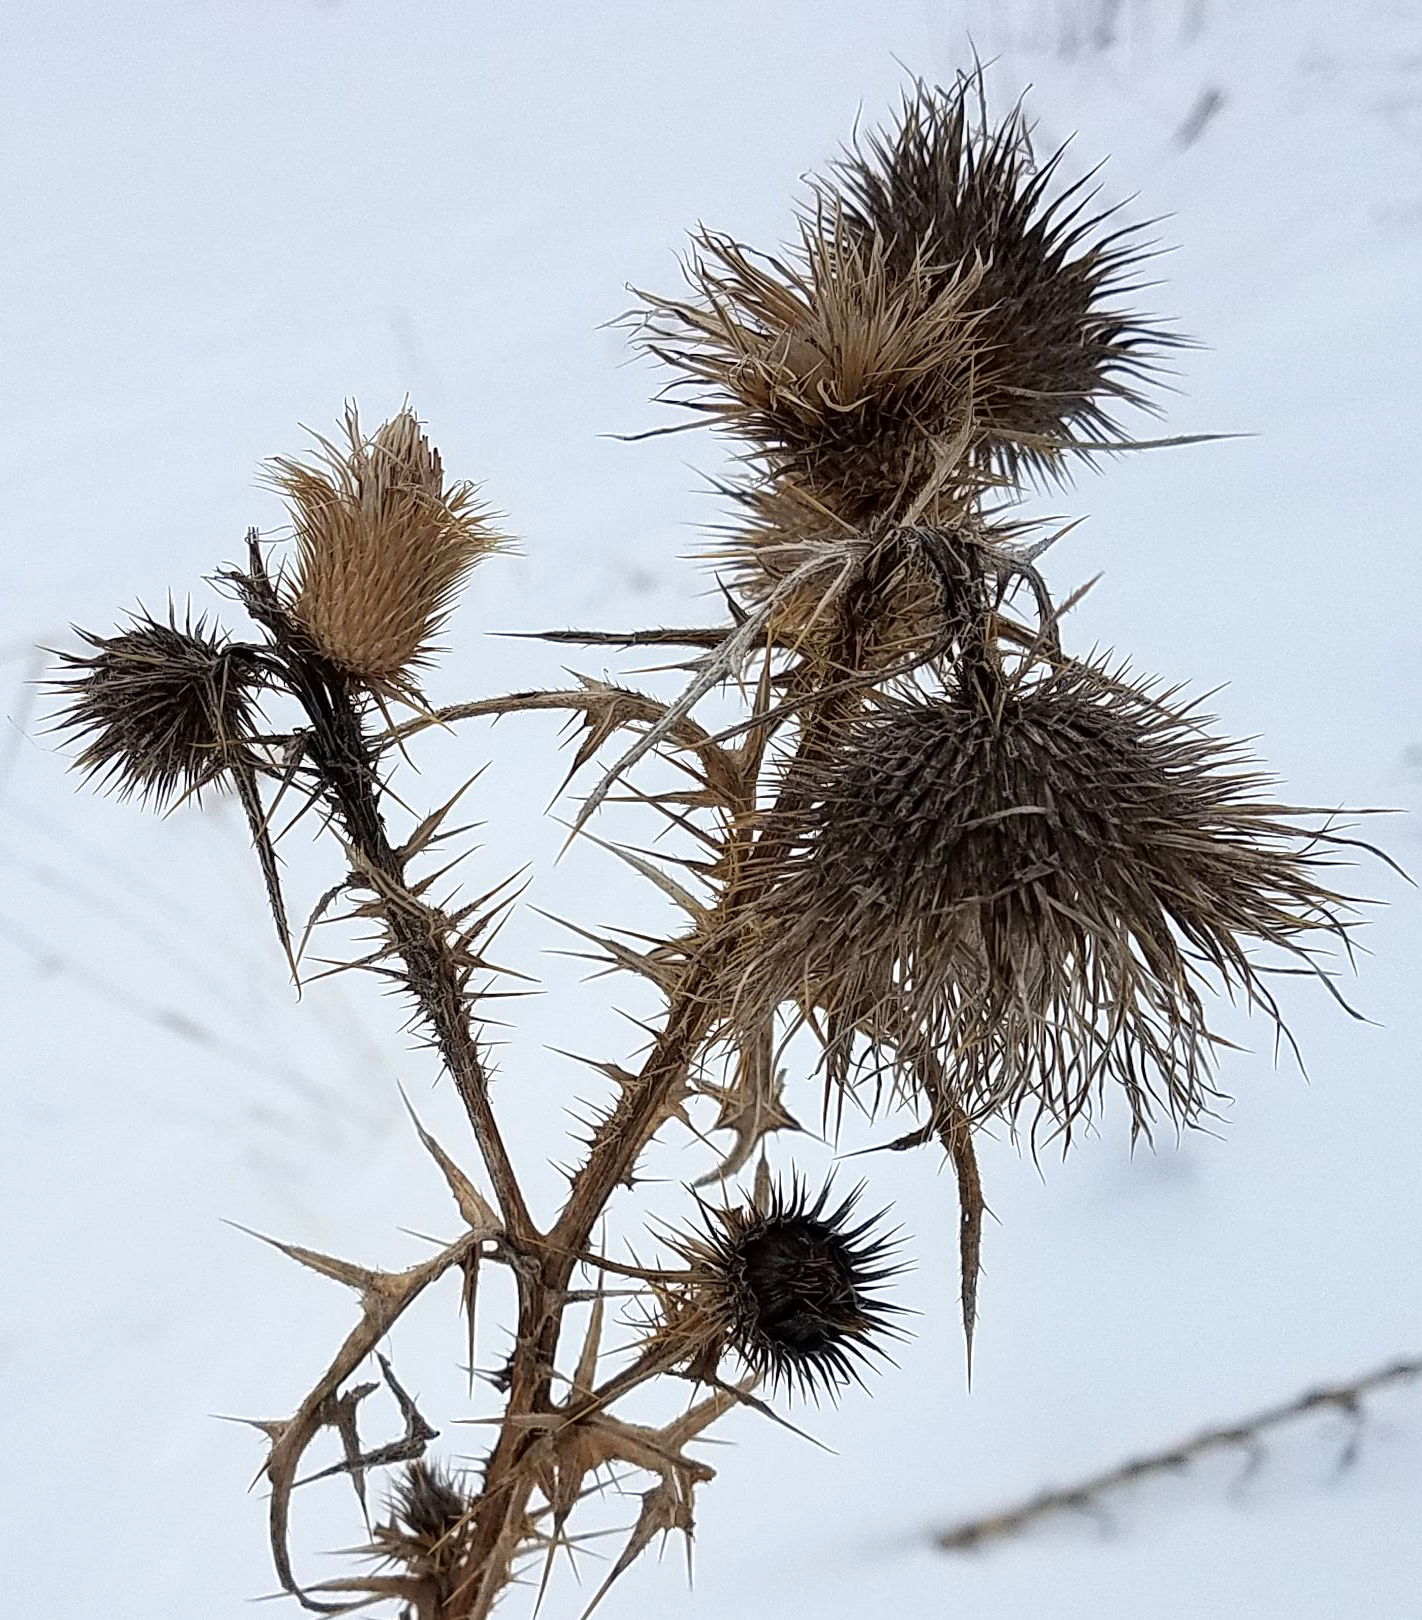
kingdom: Plantae
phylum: Tracheophyta
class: Magnoliopsida
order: Asterales
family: Asteraceae
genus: Cirsium
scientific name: Cirsium vulgare
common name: Bull thistle
